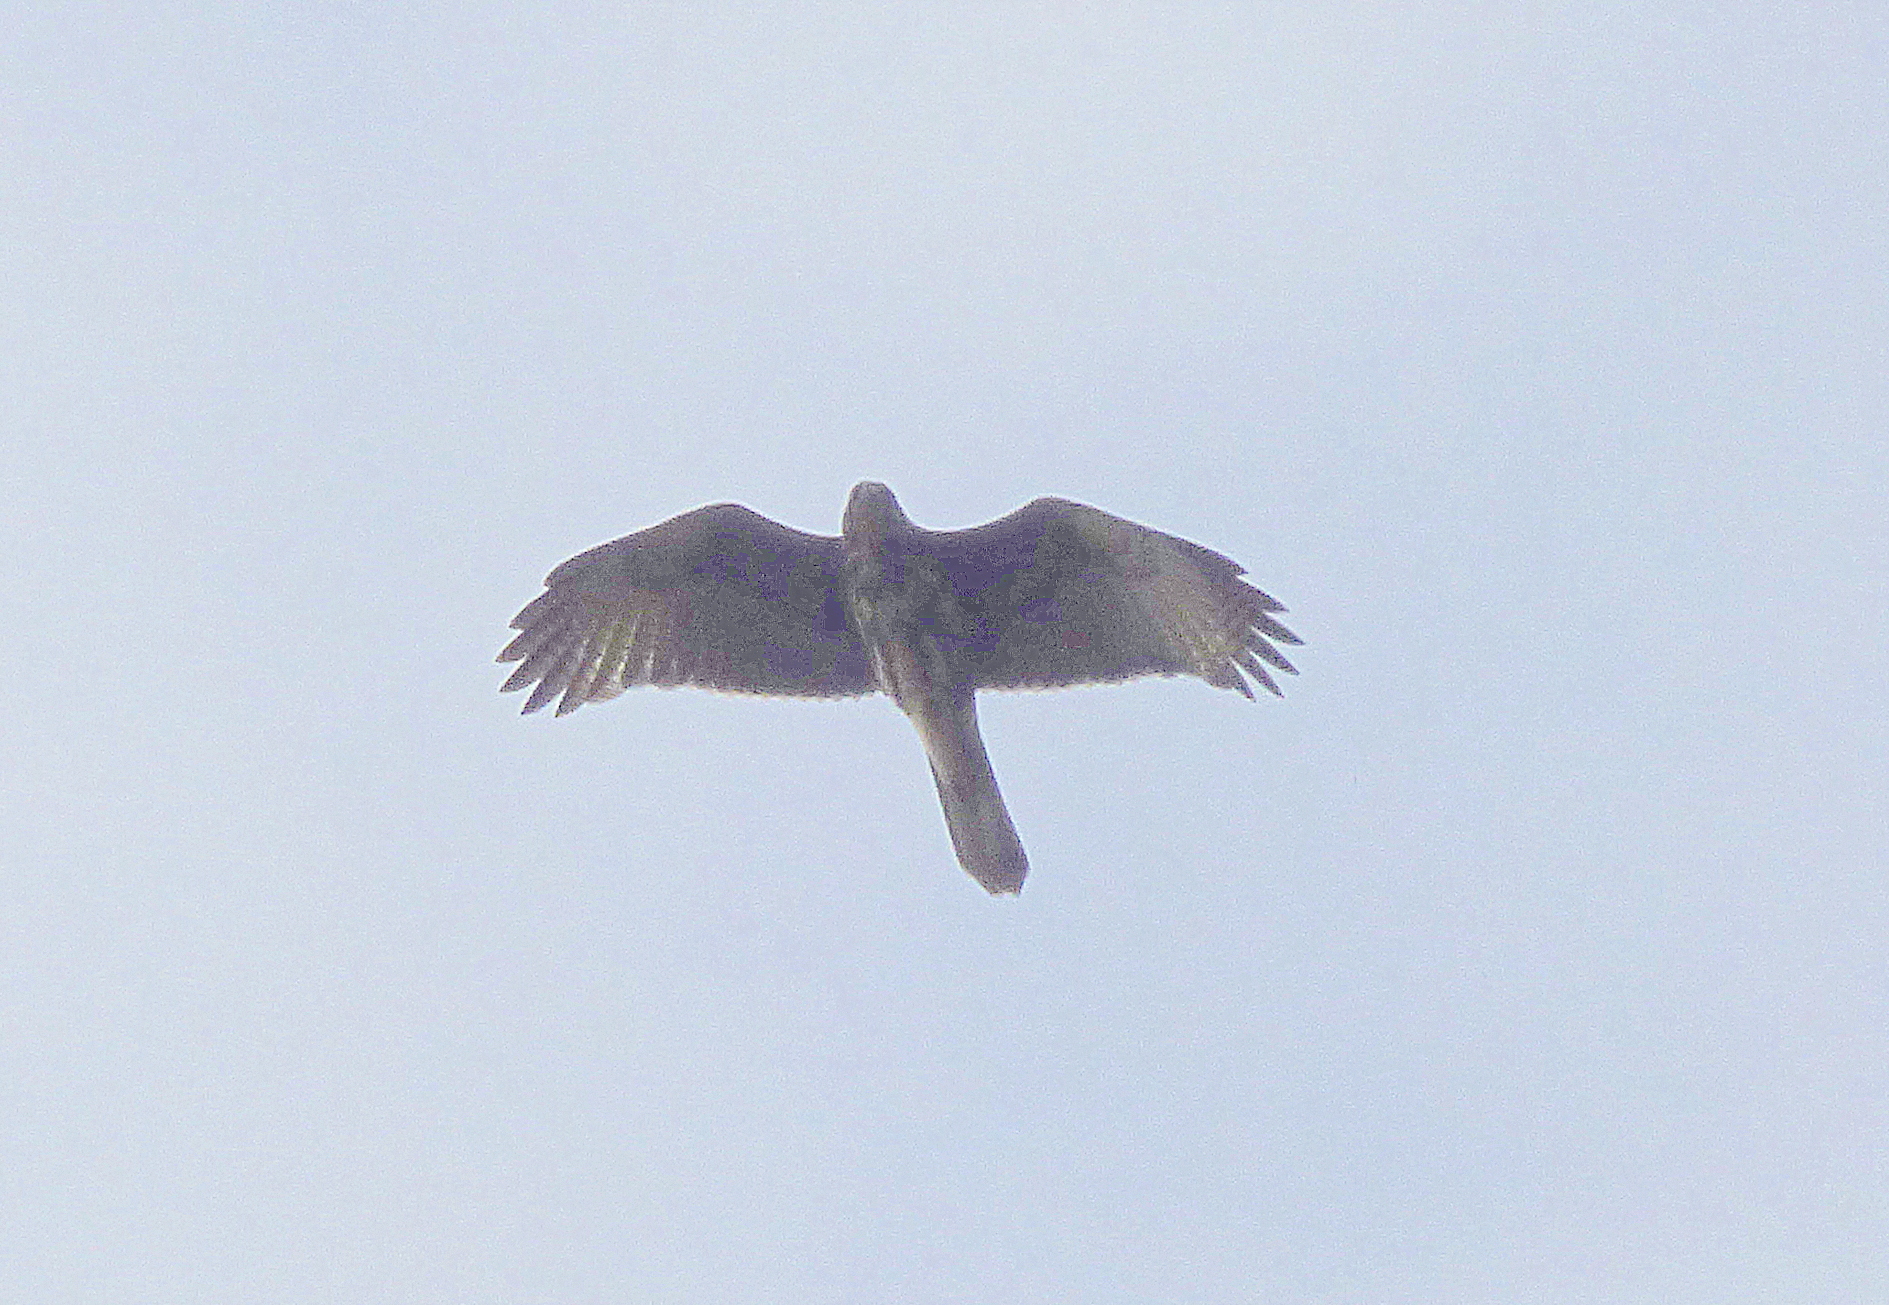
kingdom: Animalia
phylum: Chordata
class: Aves
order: Accipitriformes
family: Accipitridae
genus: Parabuteo
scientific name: Parabuteo unicinctus
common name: Harris's hawk
